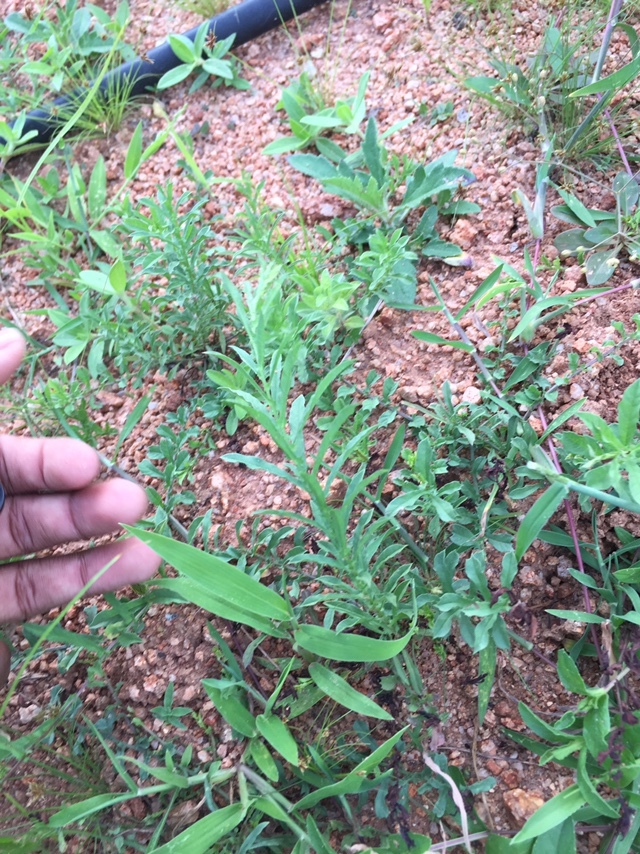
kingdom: Plantae
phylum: Tracheophyta
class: Magnoliopsida
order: Solanales
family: Convolvulaceae
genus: Xenostegia
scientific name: Xenostegia tridentata
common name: African morningvine
